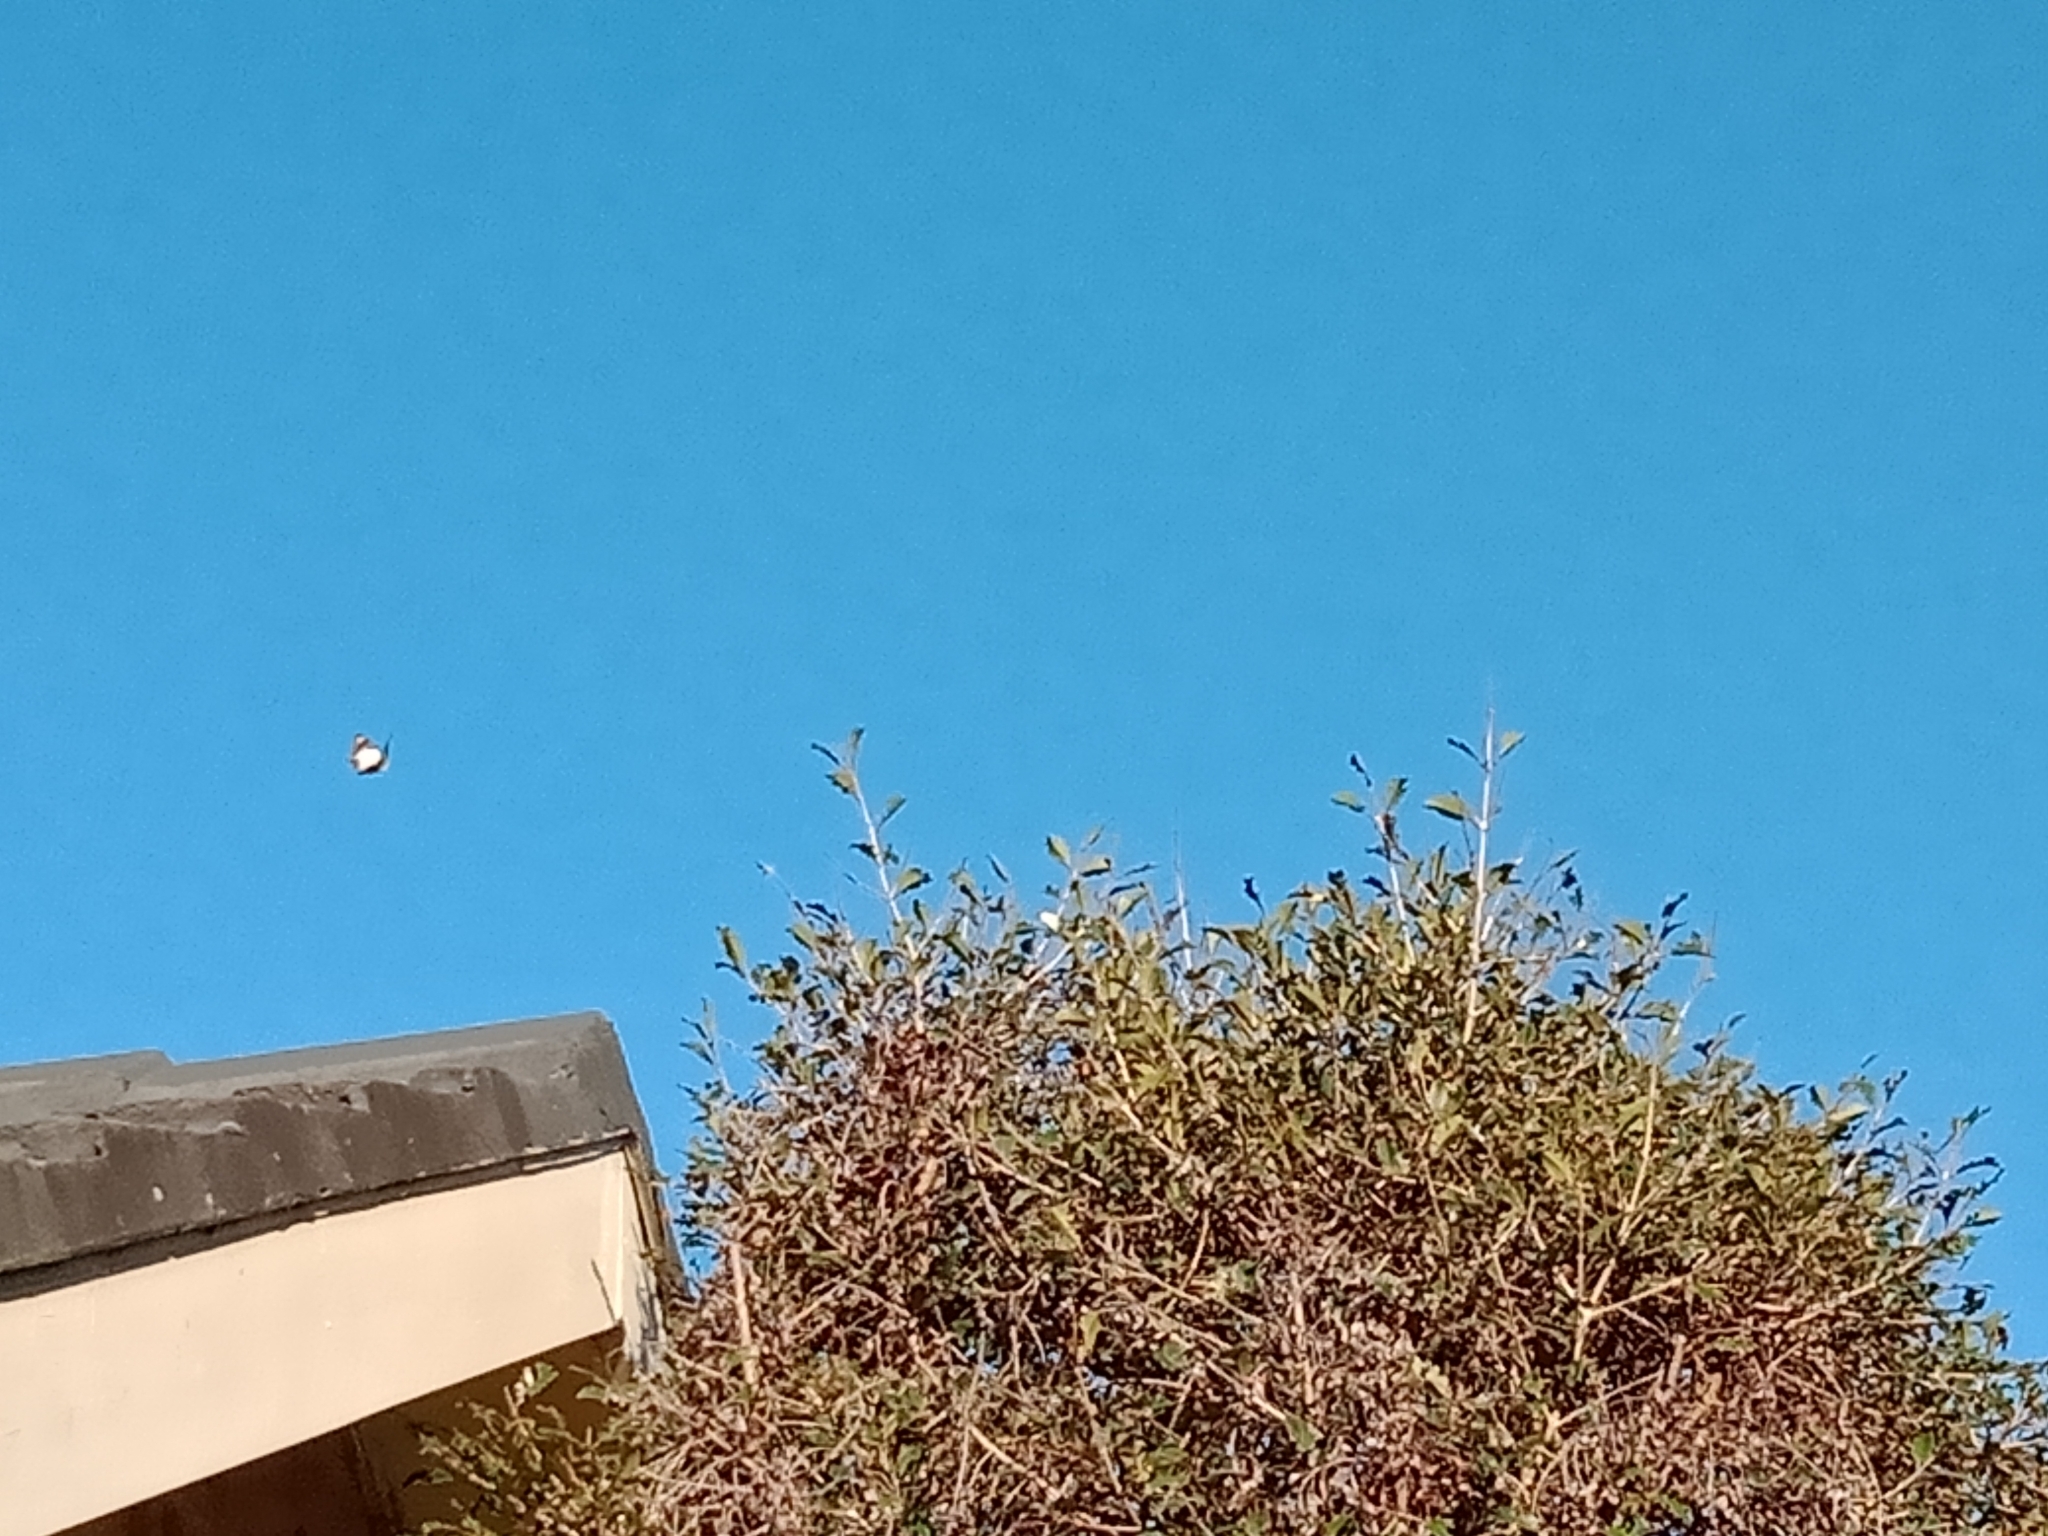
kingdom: Animalia
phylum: Arthropoda
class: Insecta
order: Lepidoptera
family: Pieridae
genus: Belenois
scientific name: Belenois java
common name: Caper white
